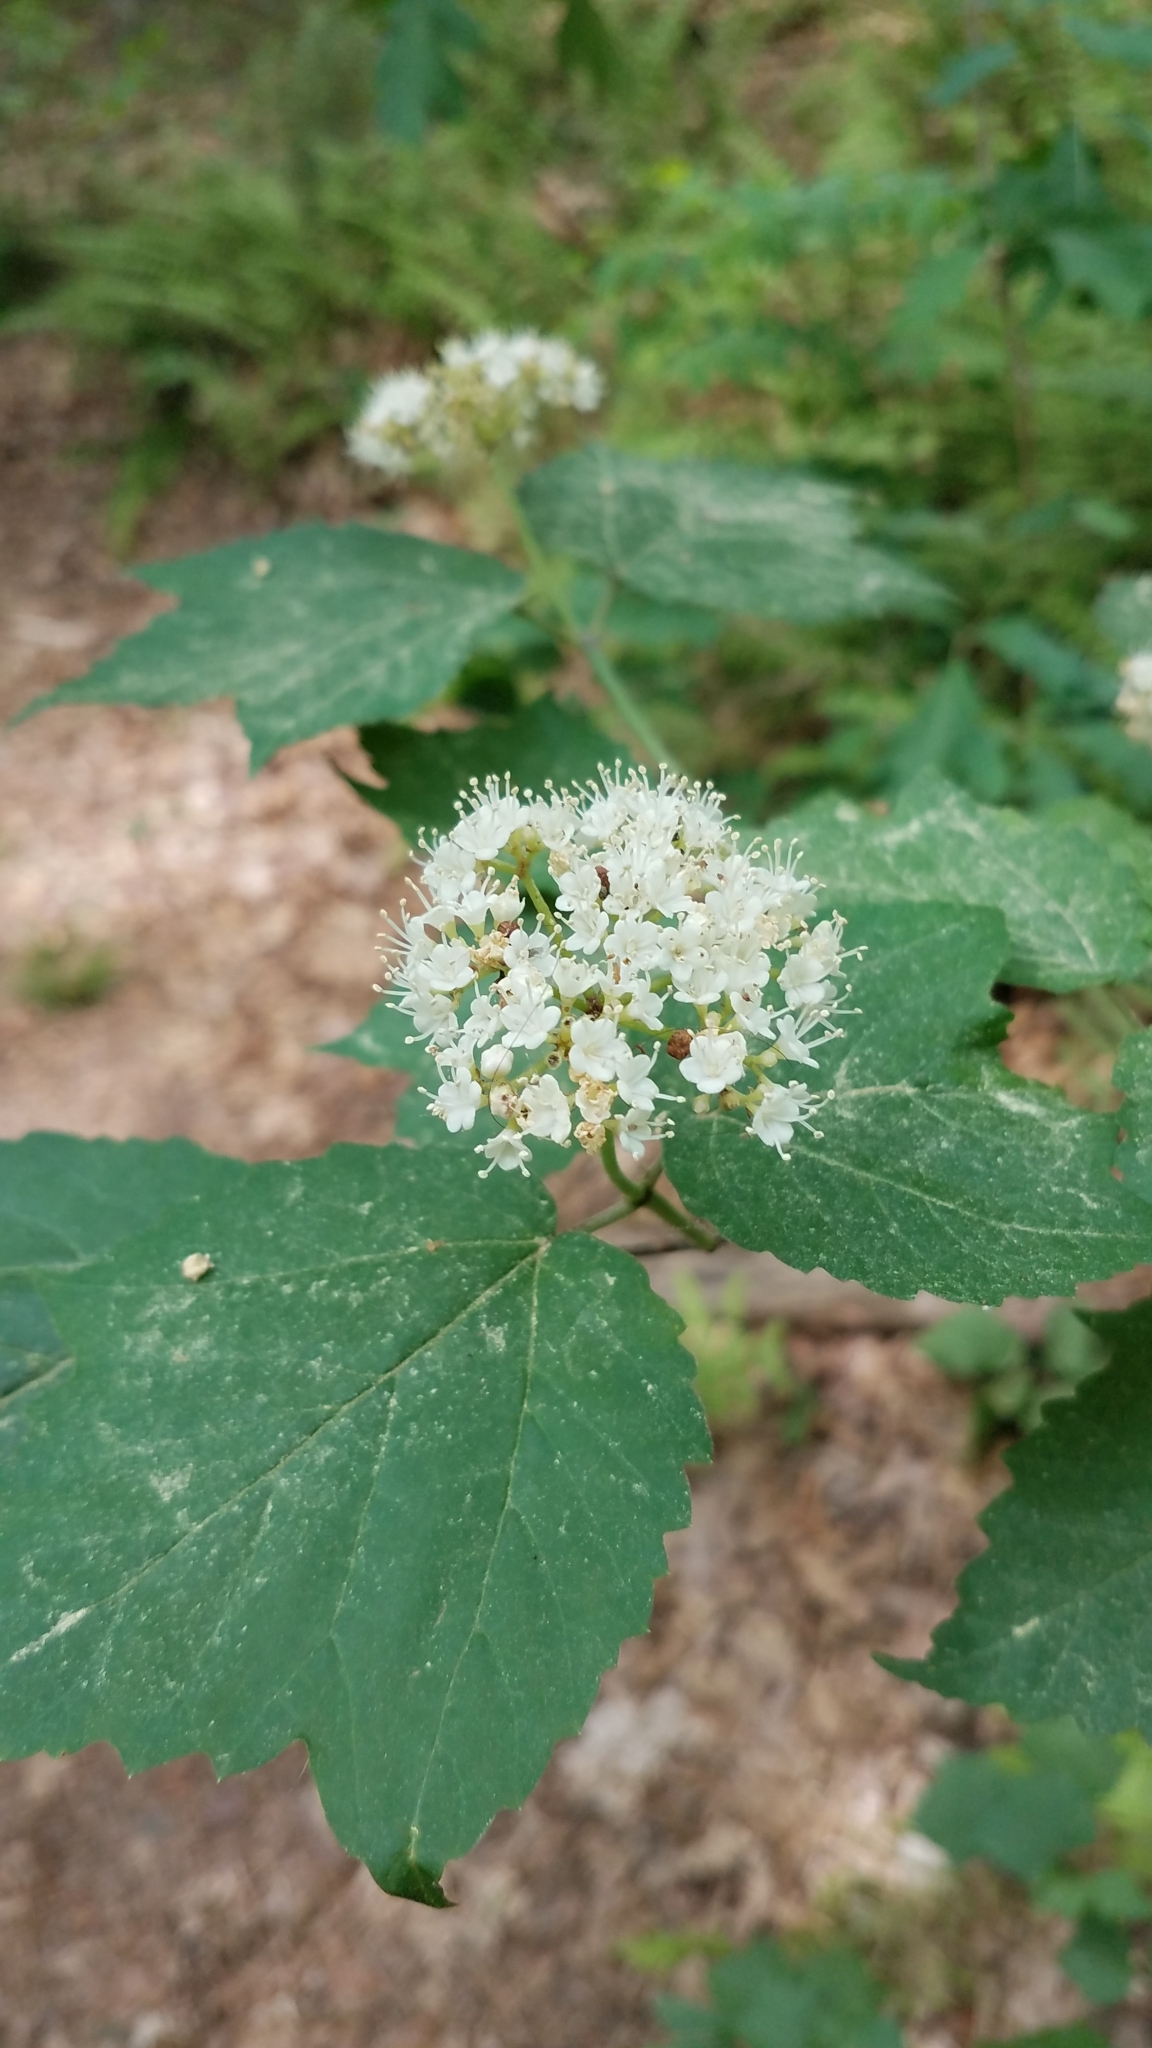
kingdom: Plantae
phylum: Tracheophyta
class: Magnoliopsida
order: Dipsacales
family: Viburnaceae
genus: Viburnum
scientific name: Viburnum acerifolium
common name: Dockmackie
